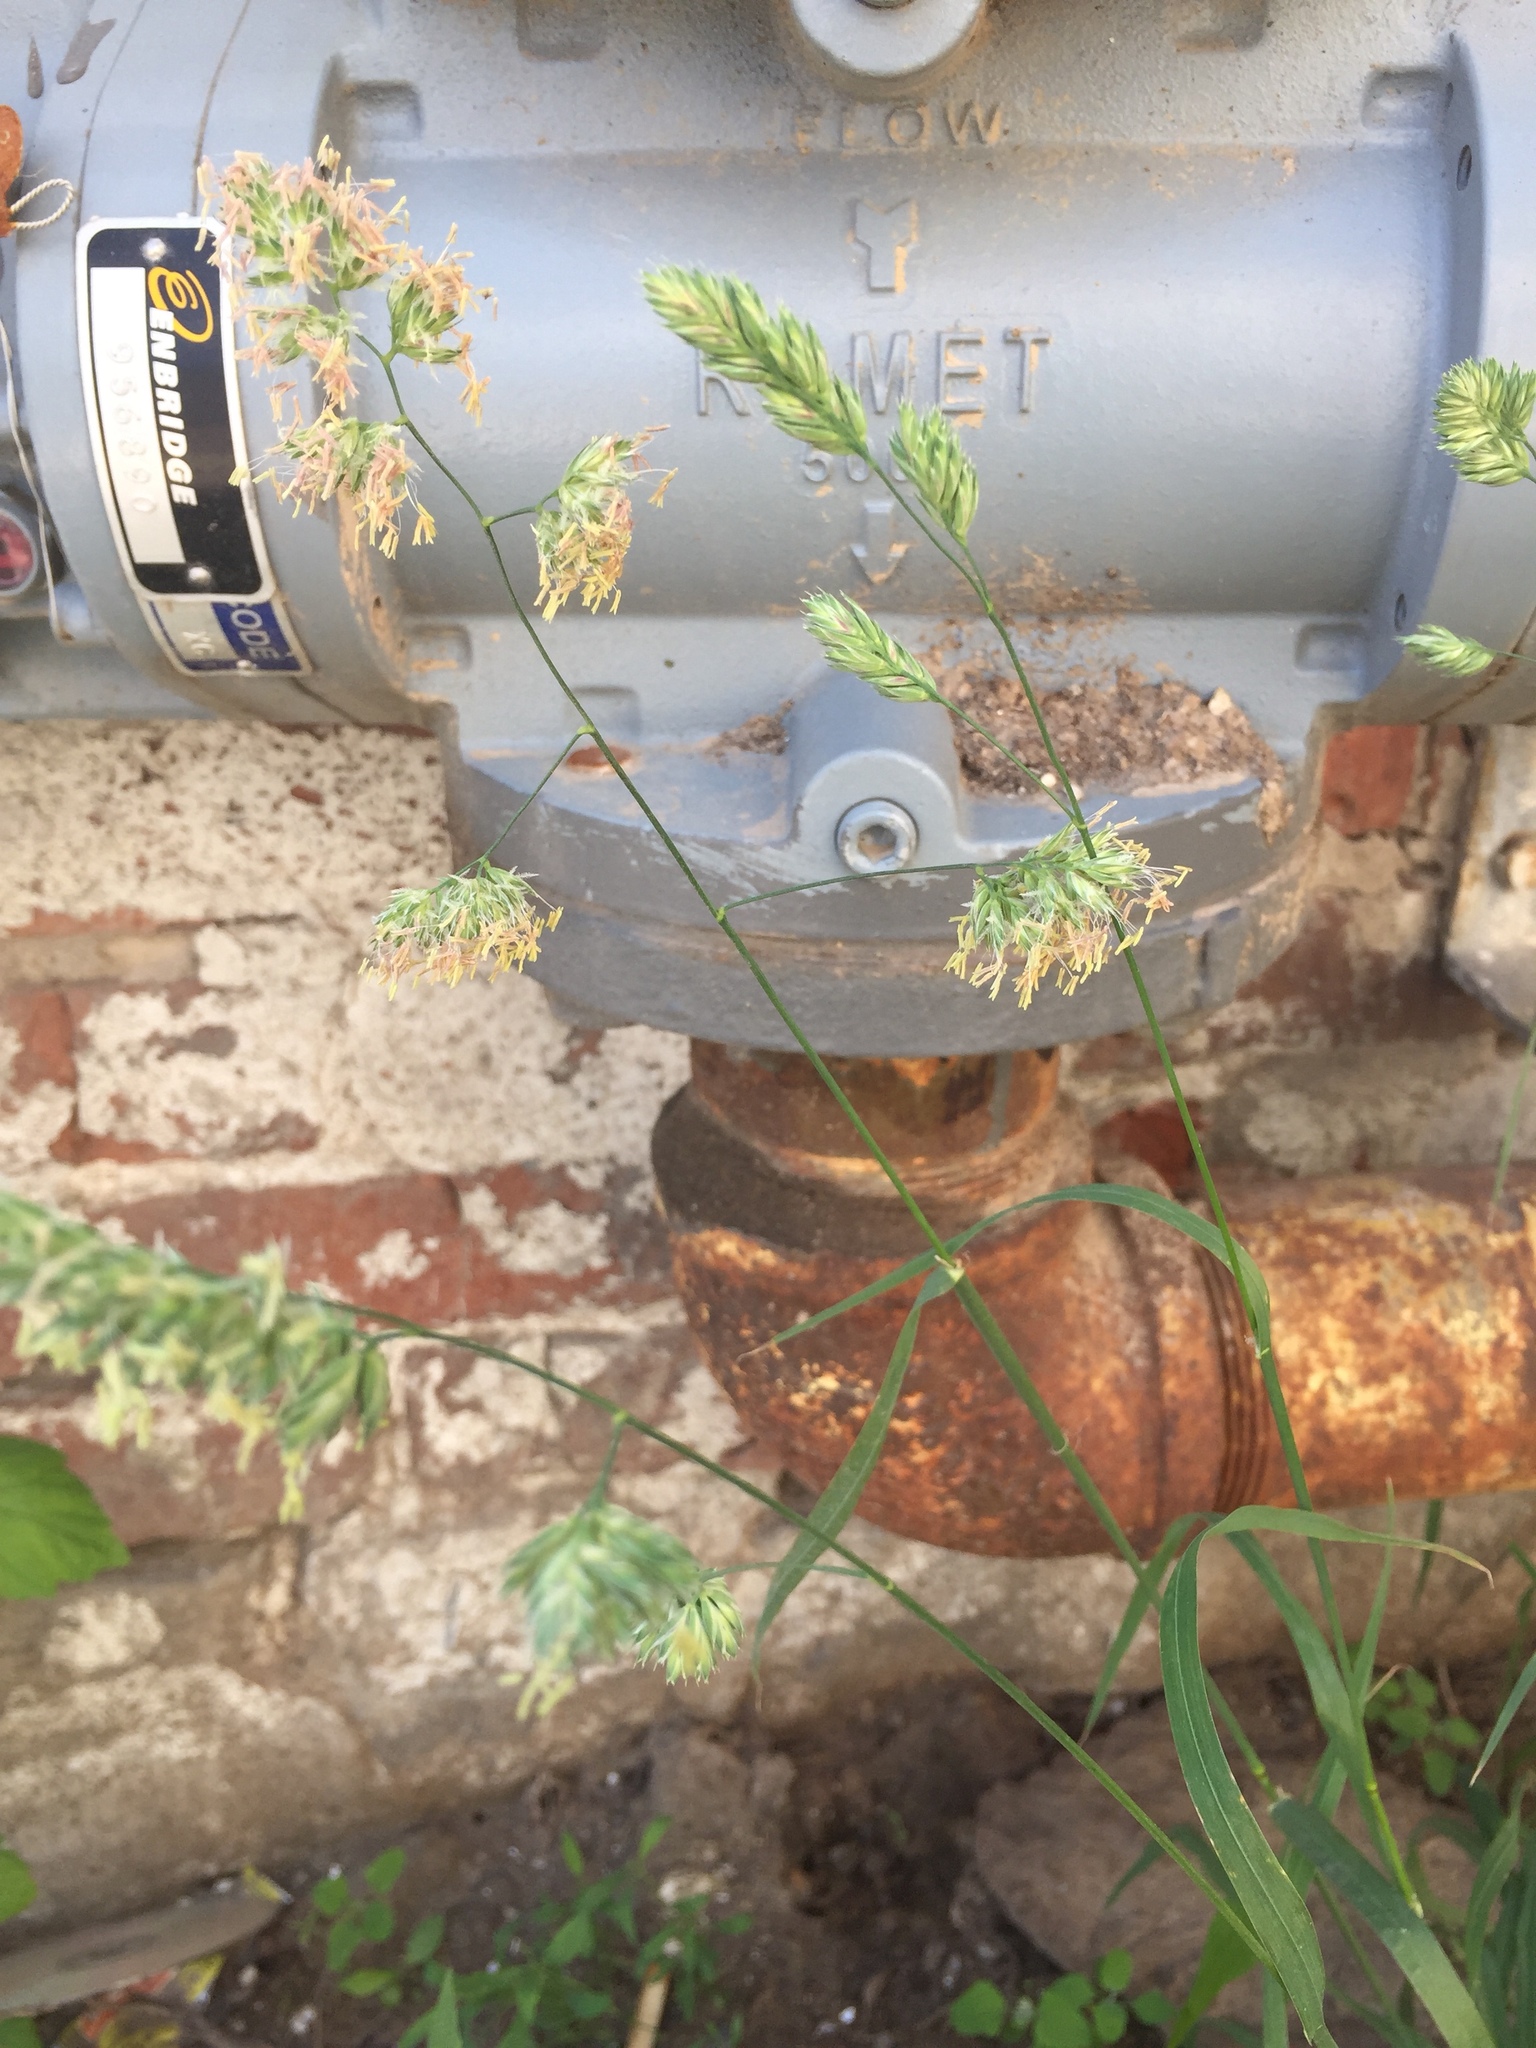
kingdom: Plantae
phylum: Tracheophyta
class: Liliopsida
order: Poales
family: Poaceae
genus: Dactylis
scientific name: Dactylis glomerata
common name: Orchardgrass
